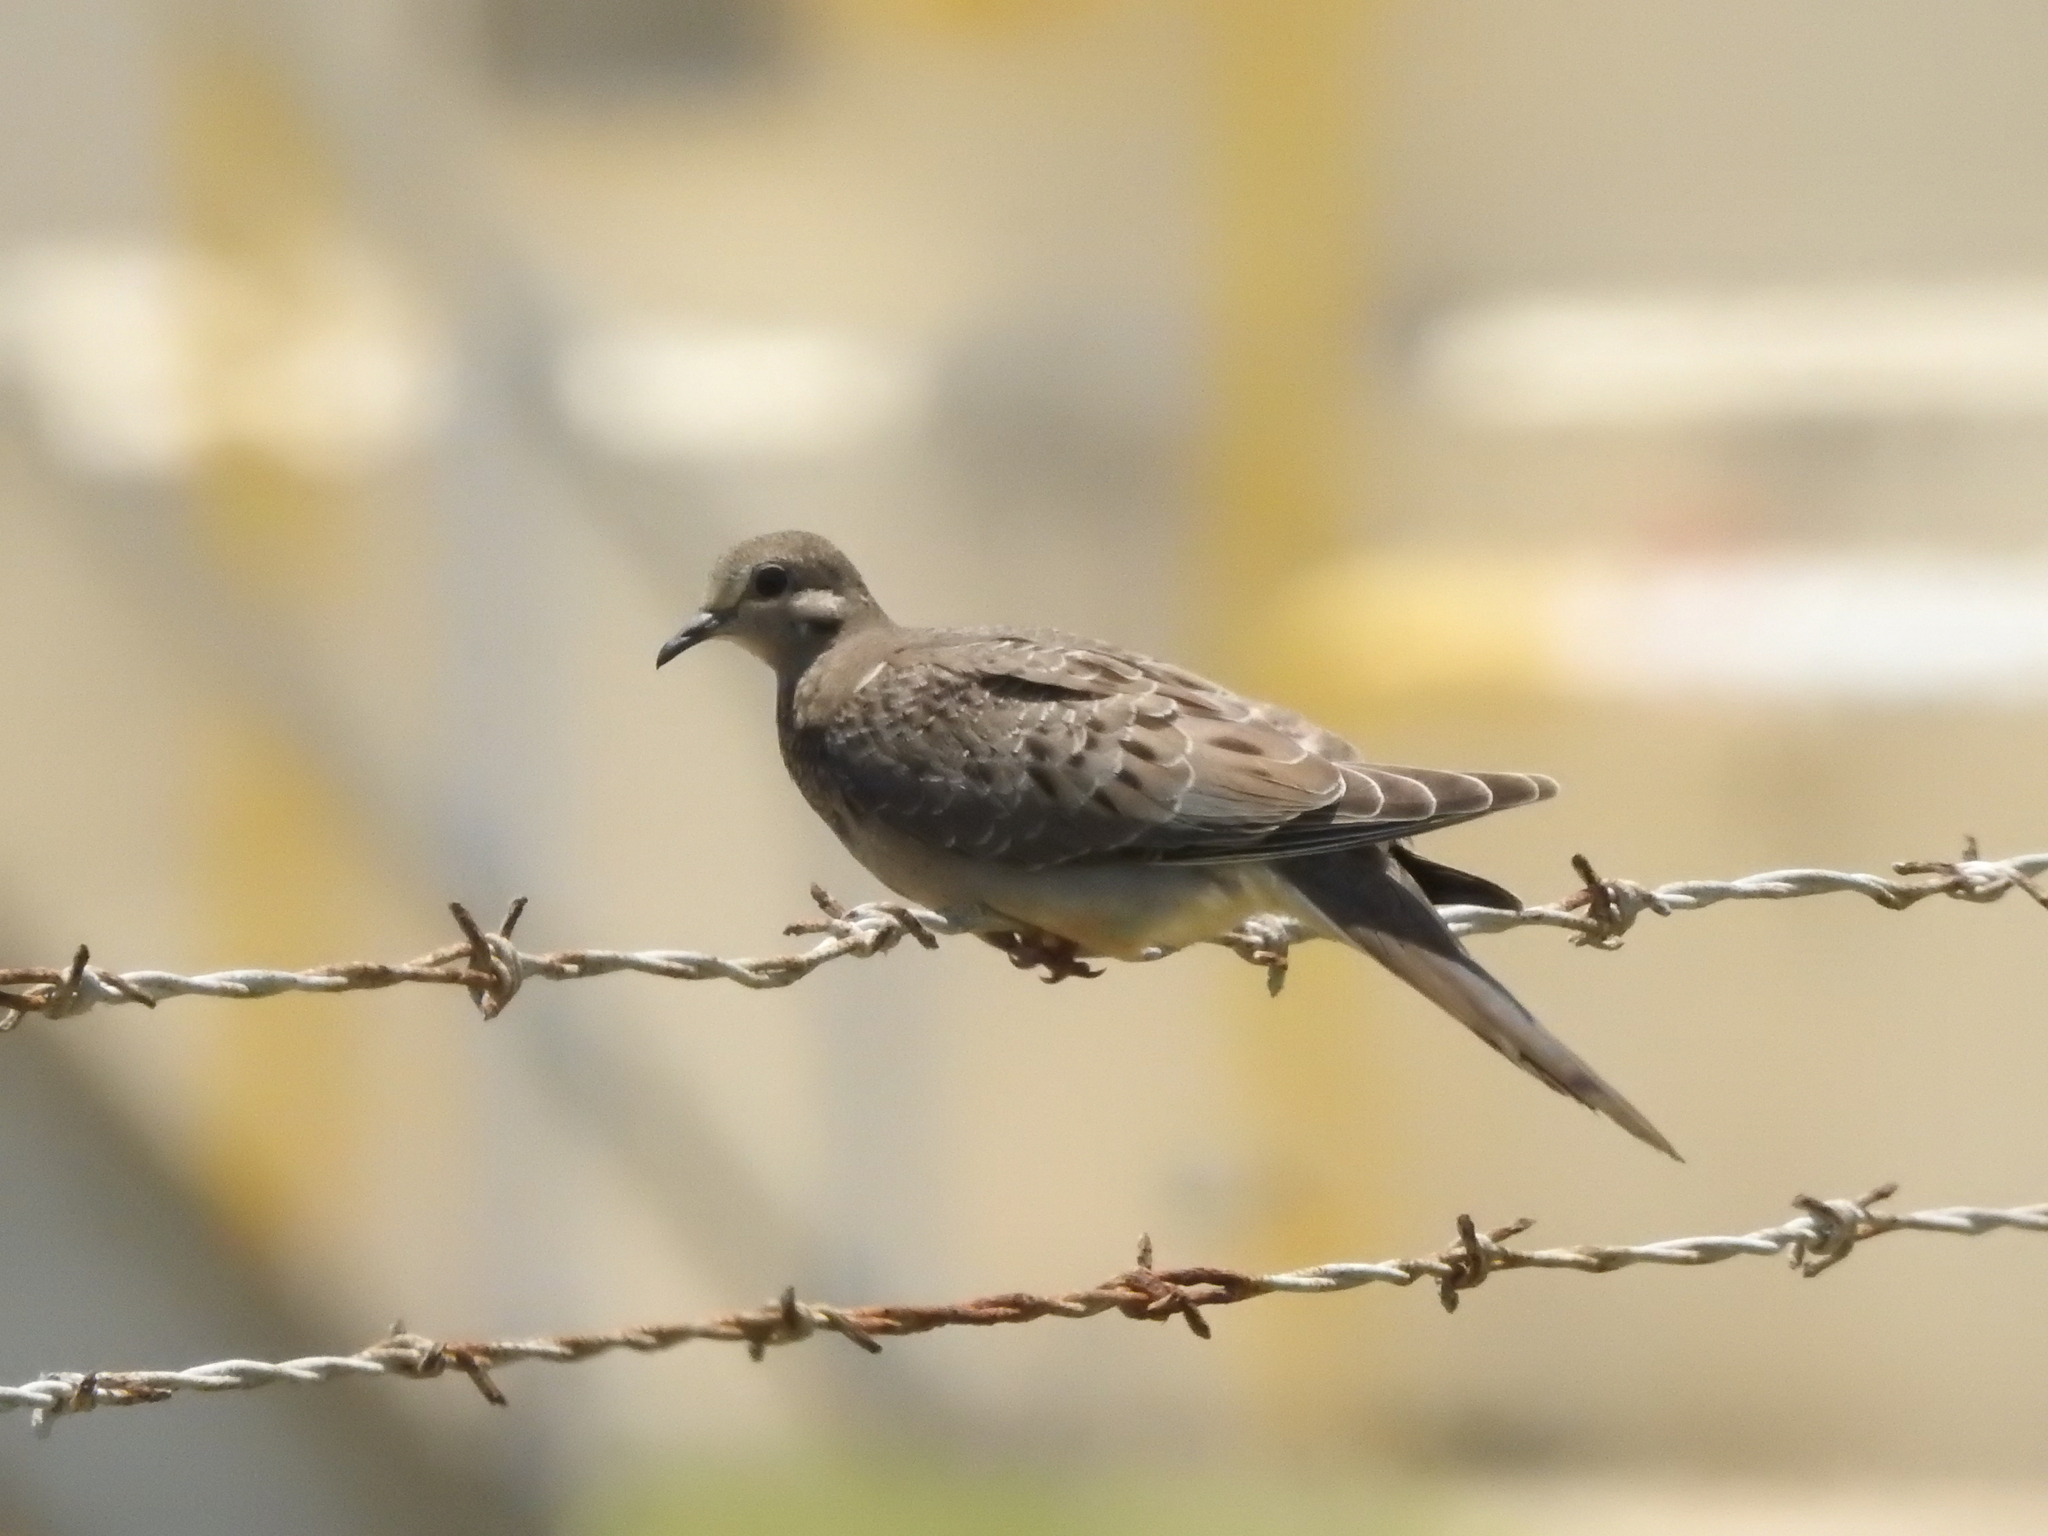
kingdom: Animalia
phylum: Chordata
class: Aves
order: Columbiformes
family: Columbidae
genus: Zenaida
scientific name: Zenaida macroura
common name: Mourning dove
